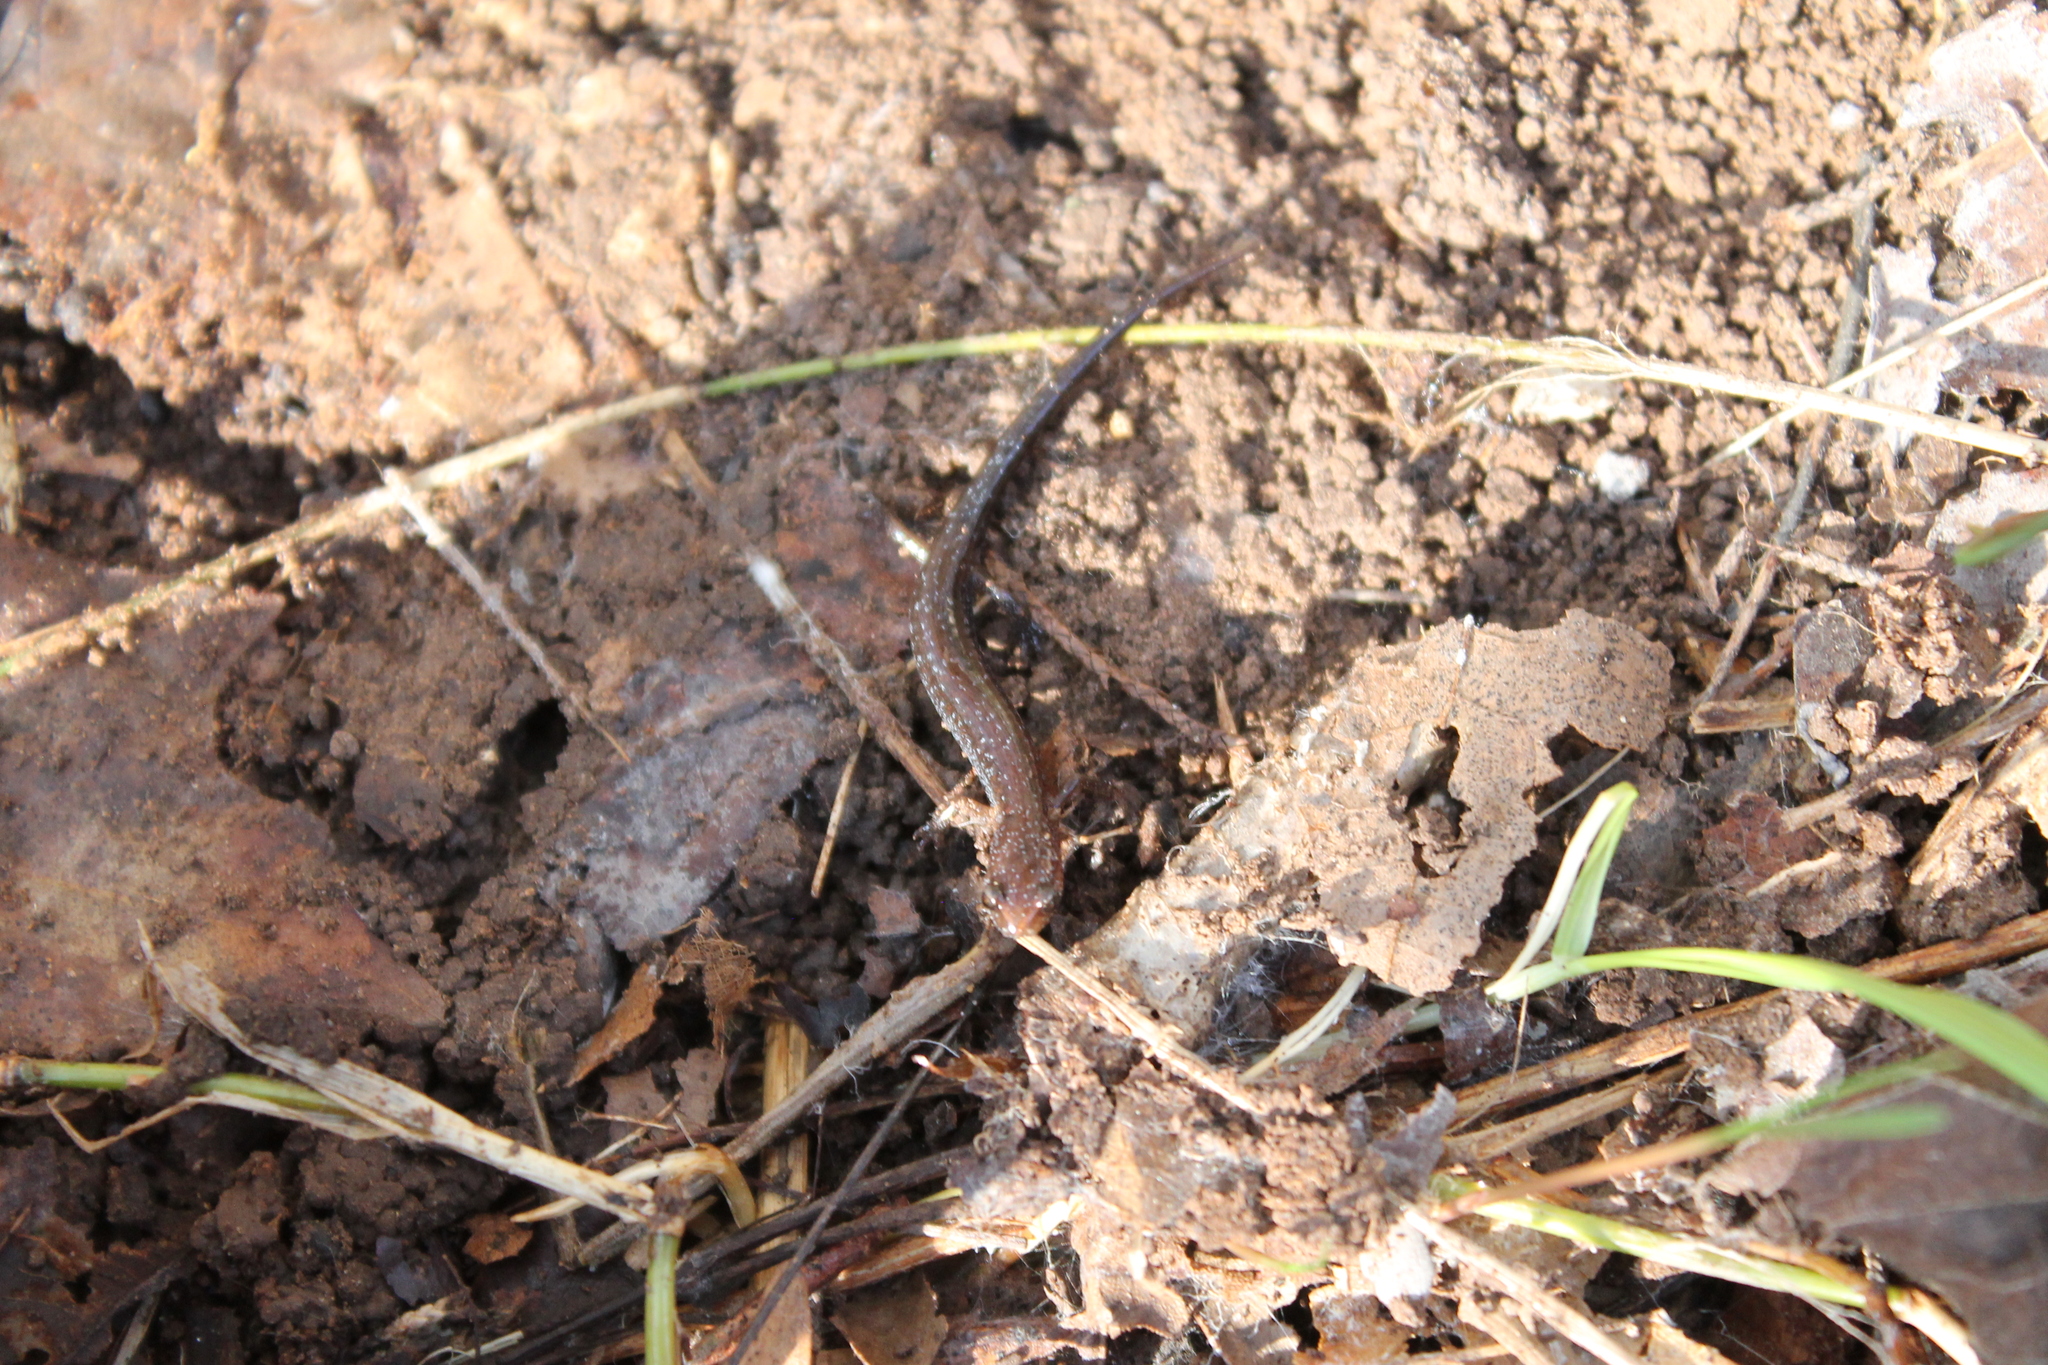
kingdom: Animalia
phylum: Chordata
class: Amphibia
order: Caudata
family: Plethodontidae
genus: Plethodon
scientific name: Plethodon dorsalis
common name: Northern zigzag salamander
